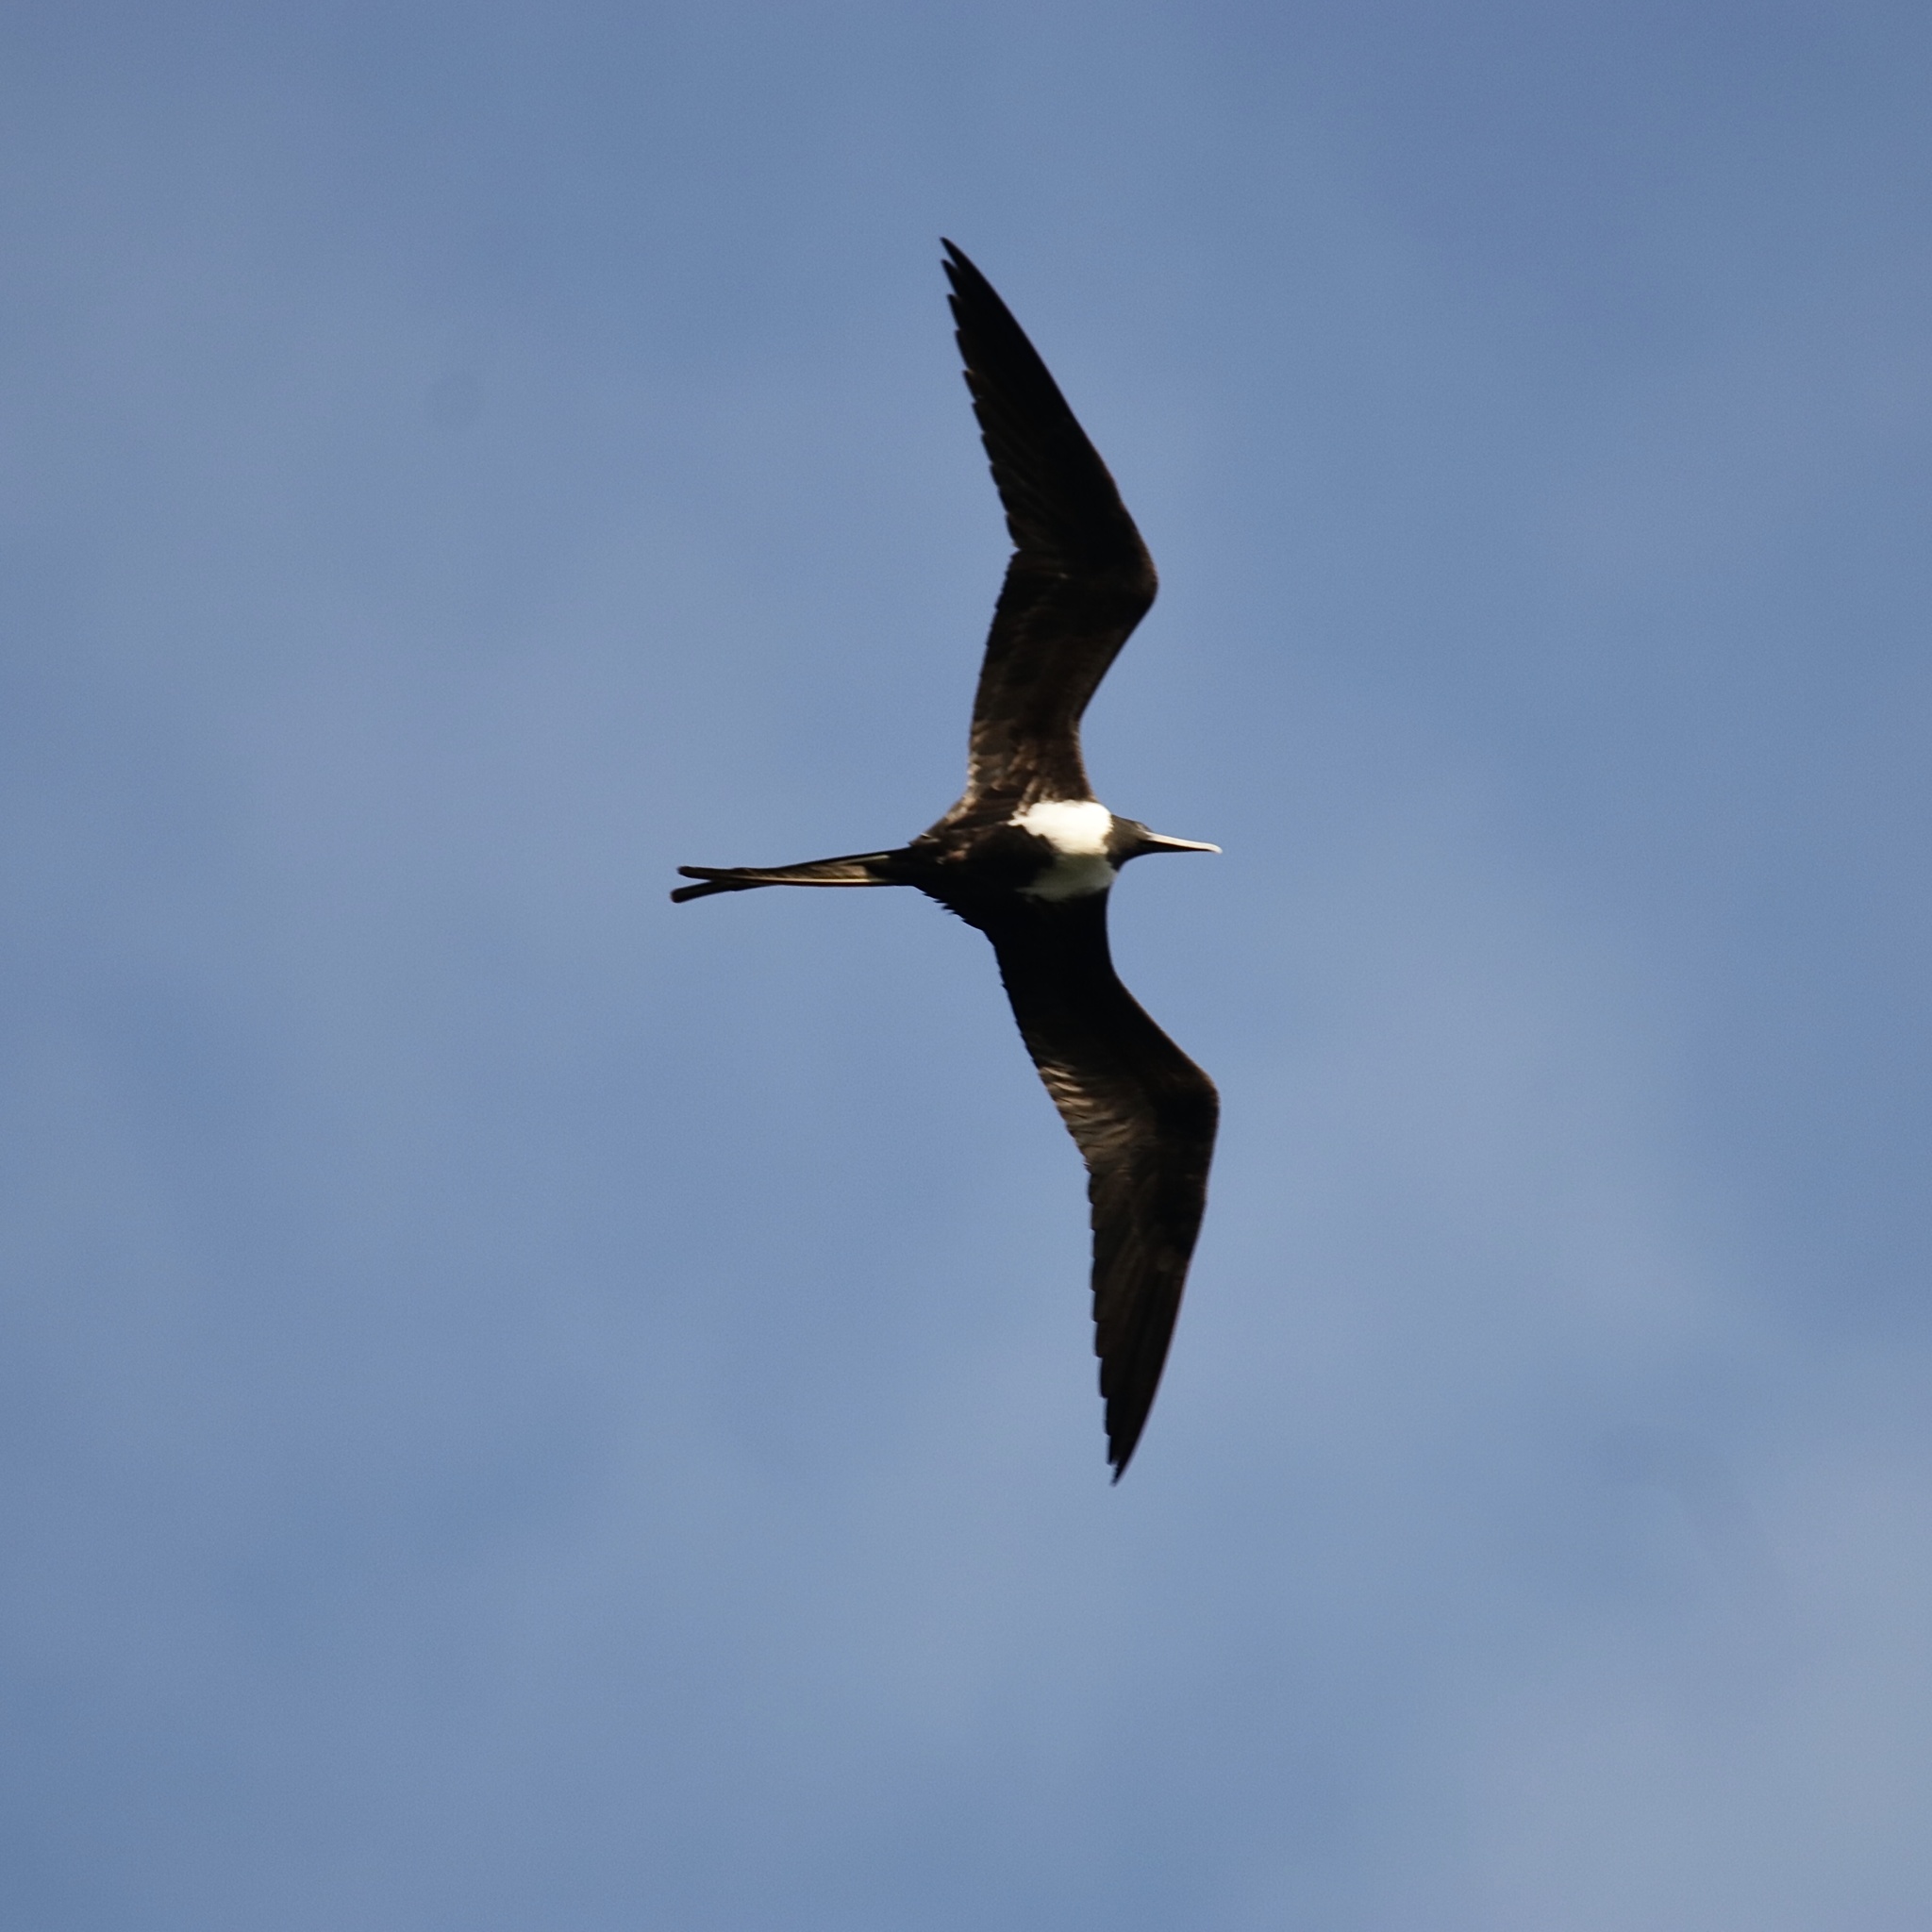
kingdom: Animalia
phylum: Chordata
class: Aves
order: Suliformes
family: Fregatidae
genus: Fregata
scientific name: Fregata magnificens
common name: Magnificent frigatebird
